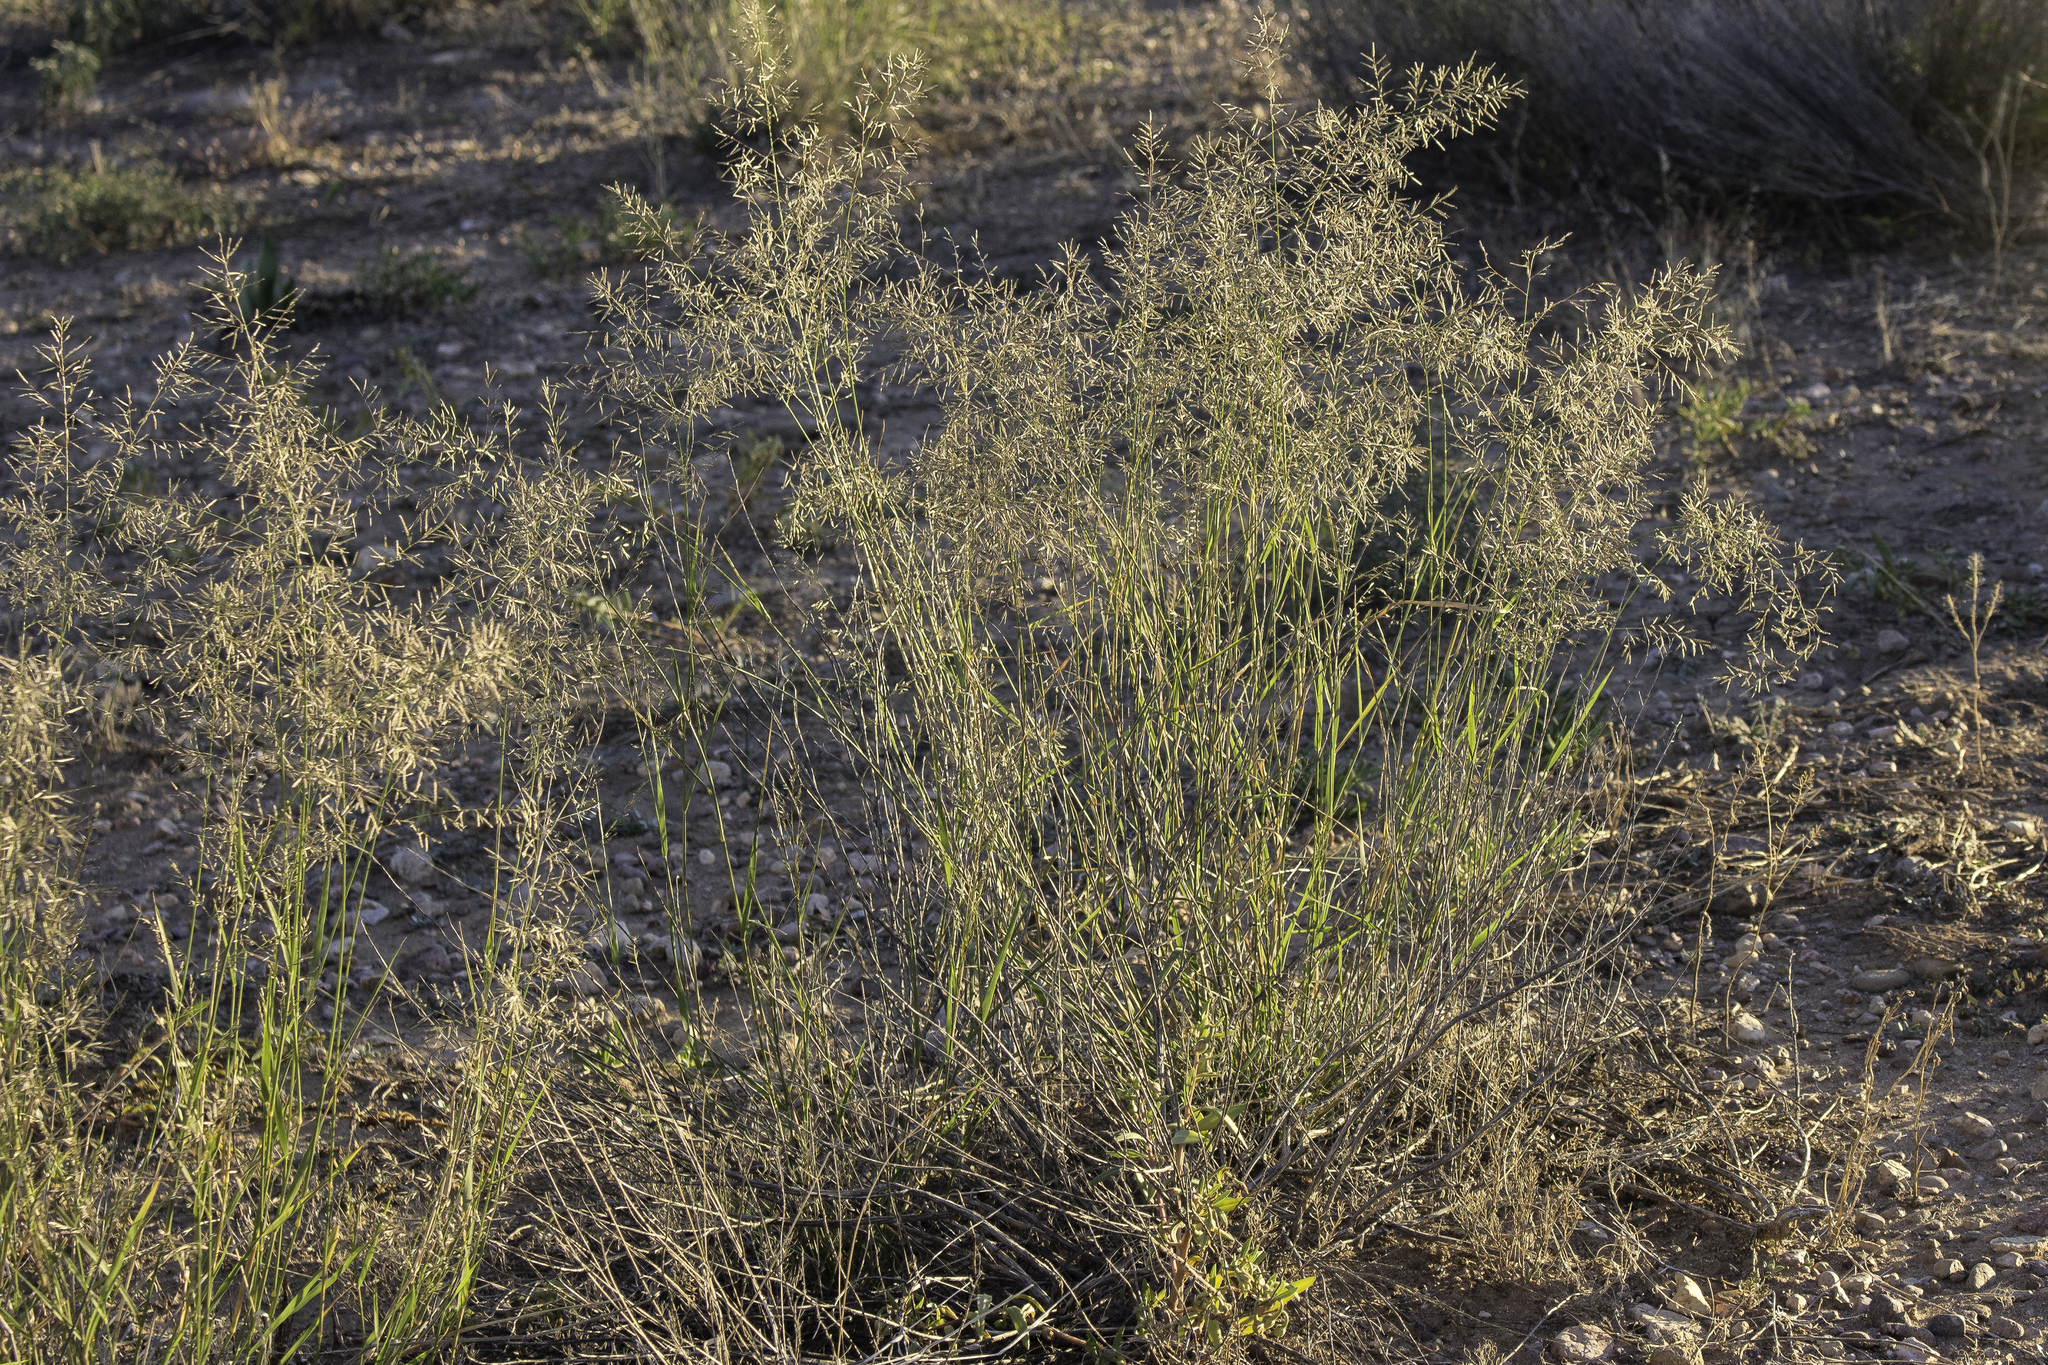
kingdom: Plantae
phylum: Tracheophyta
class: Liliopsida
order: Poales
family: Poaceae
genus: Eragrostis
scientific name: Eragrostis lehmanniana
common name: Lehmann lovegrass
